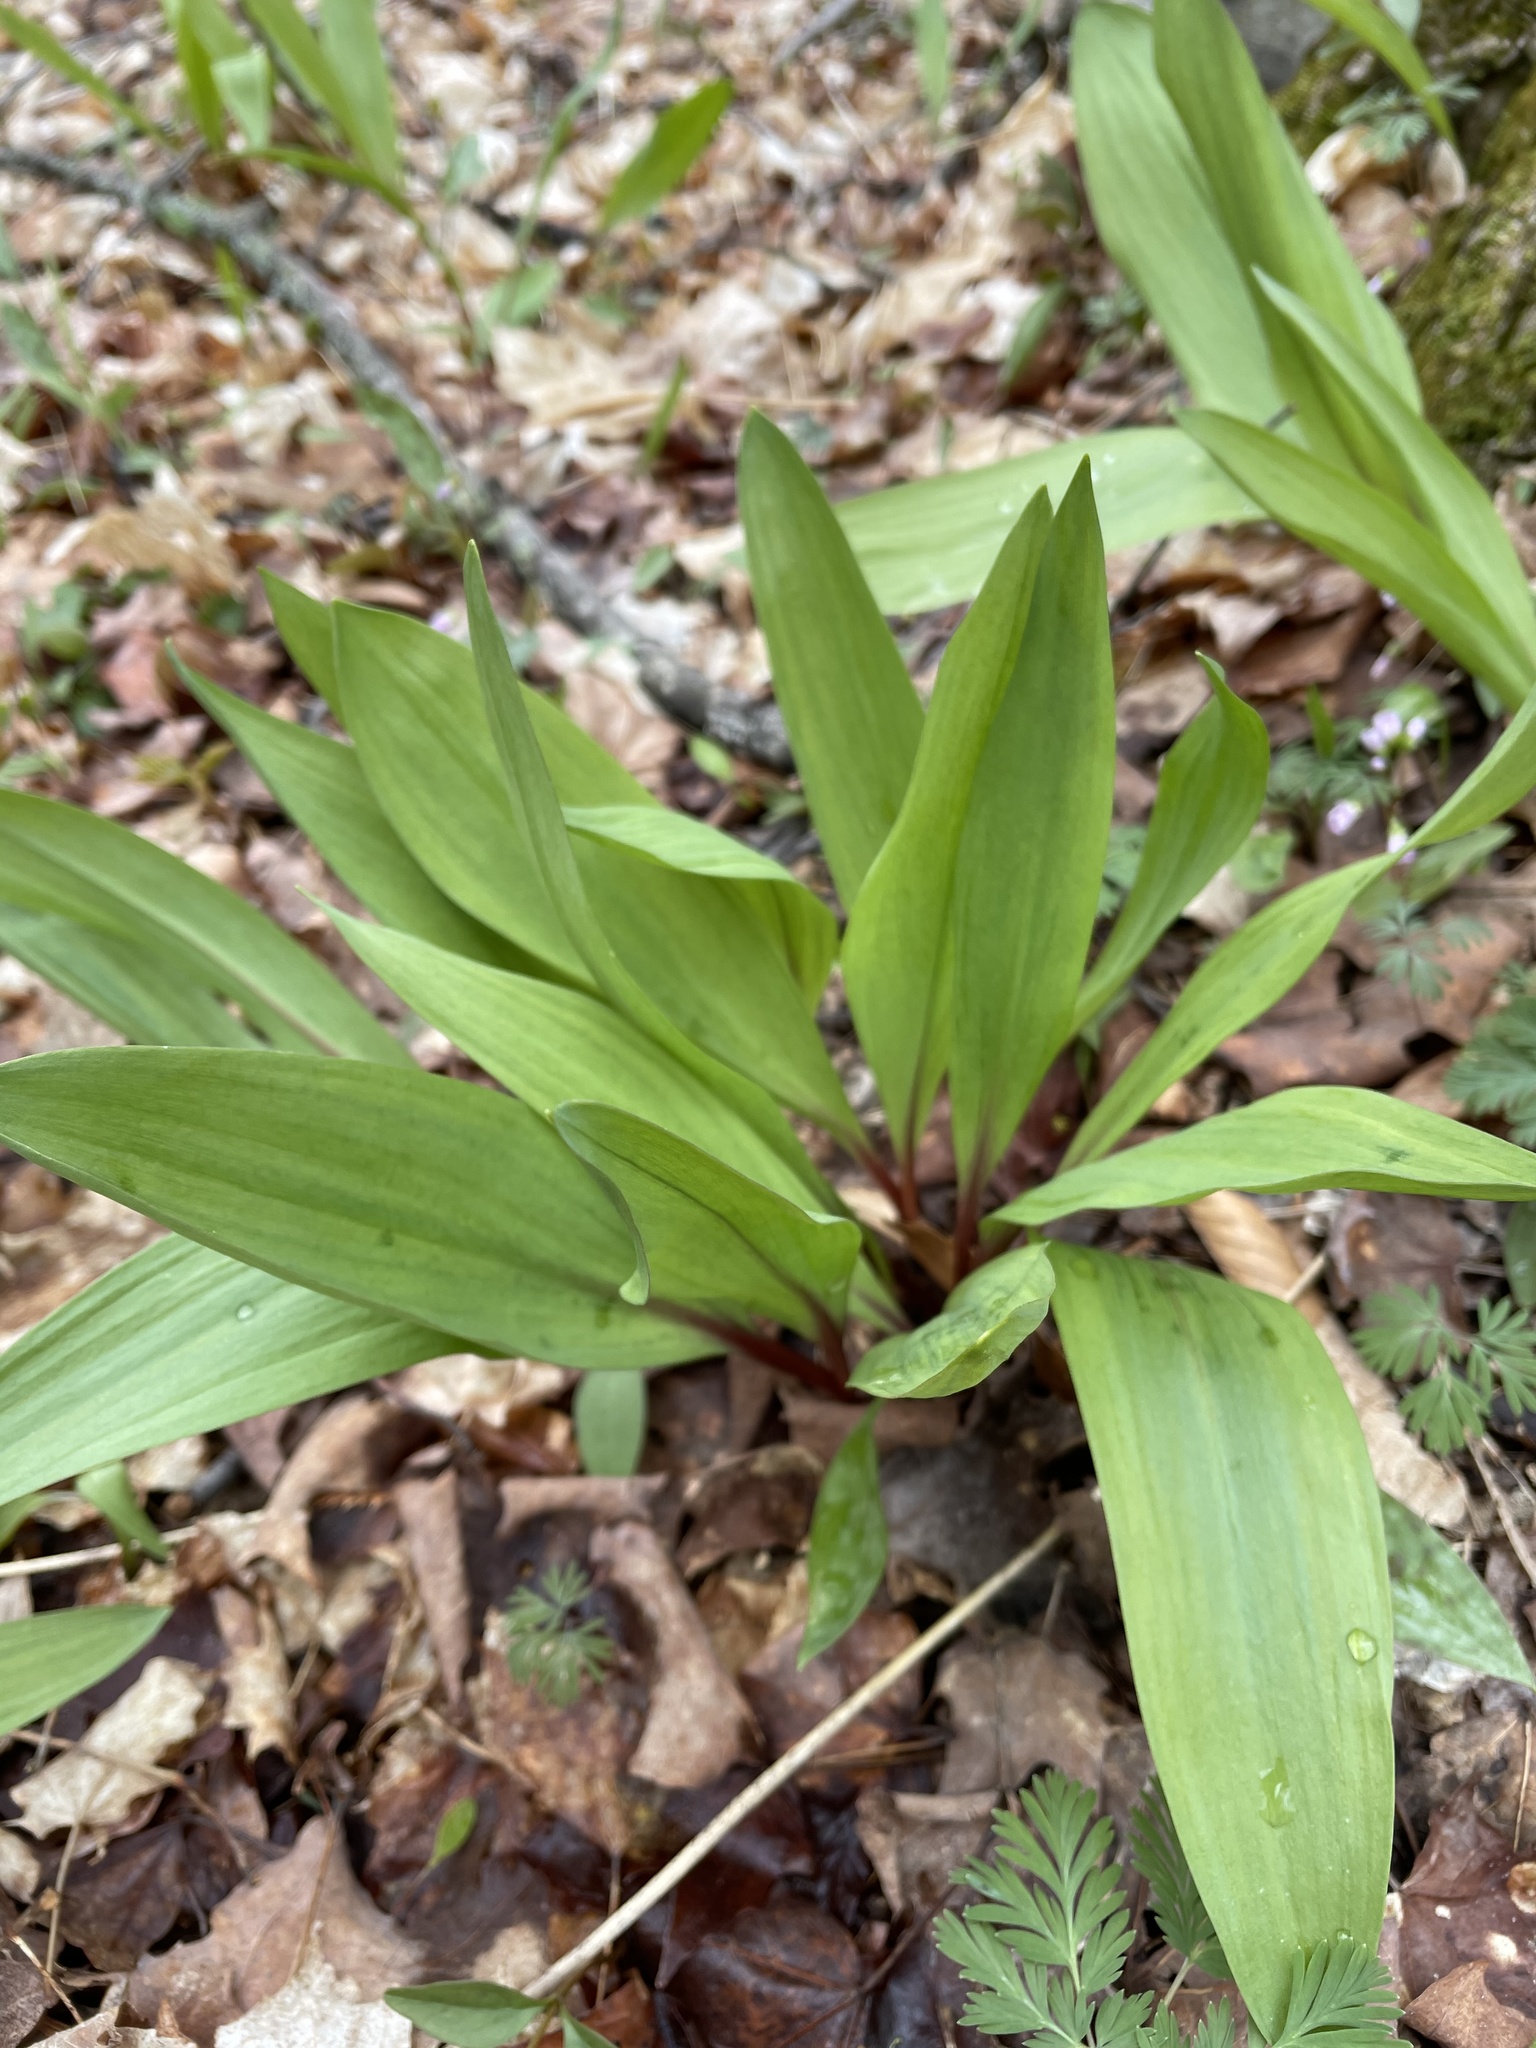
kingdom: Plantae
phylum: Tracheophyta
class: Liliopsida
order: Asparagales
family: Amaryllidaceae
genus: Allium
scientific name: Allium tricoccum
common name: Ramp
